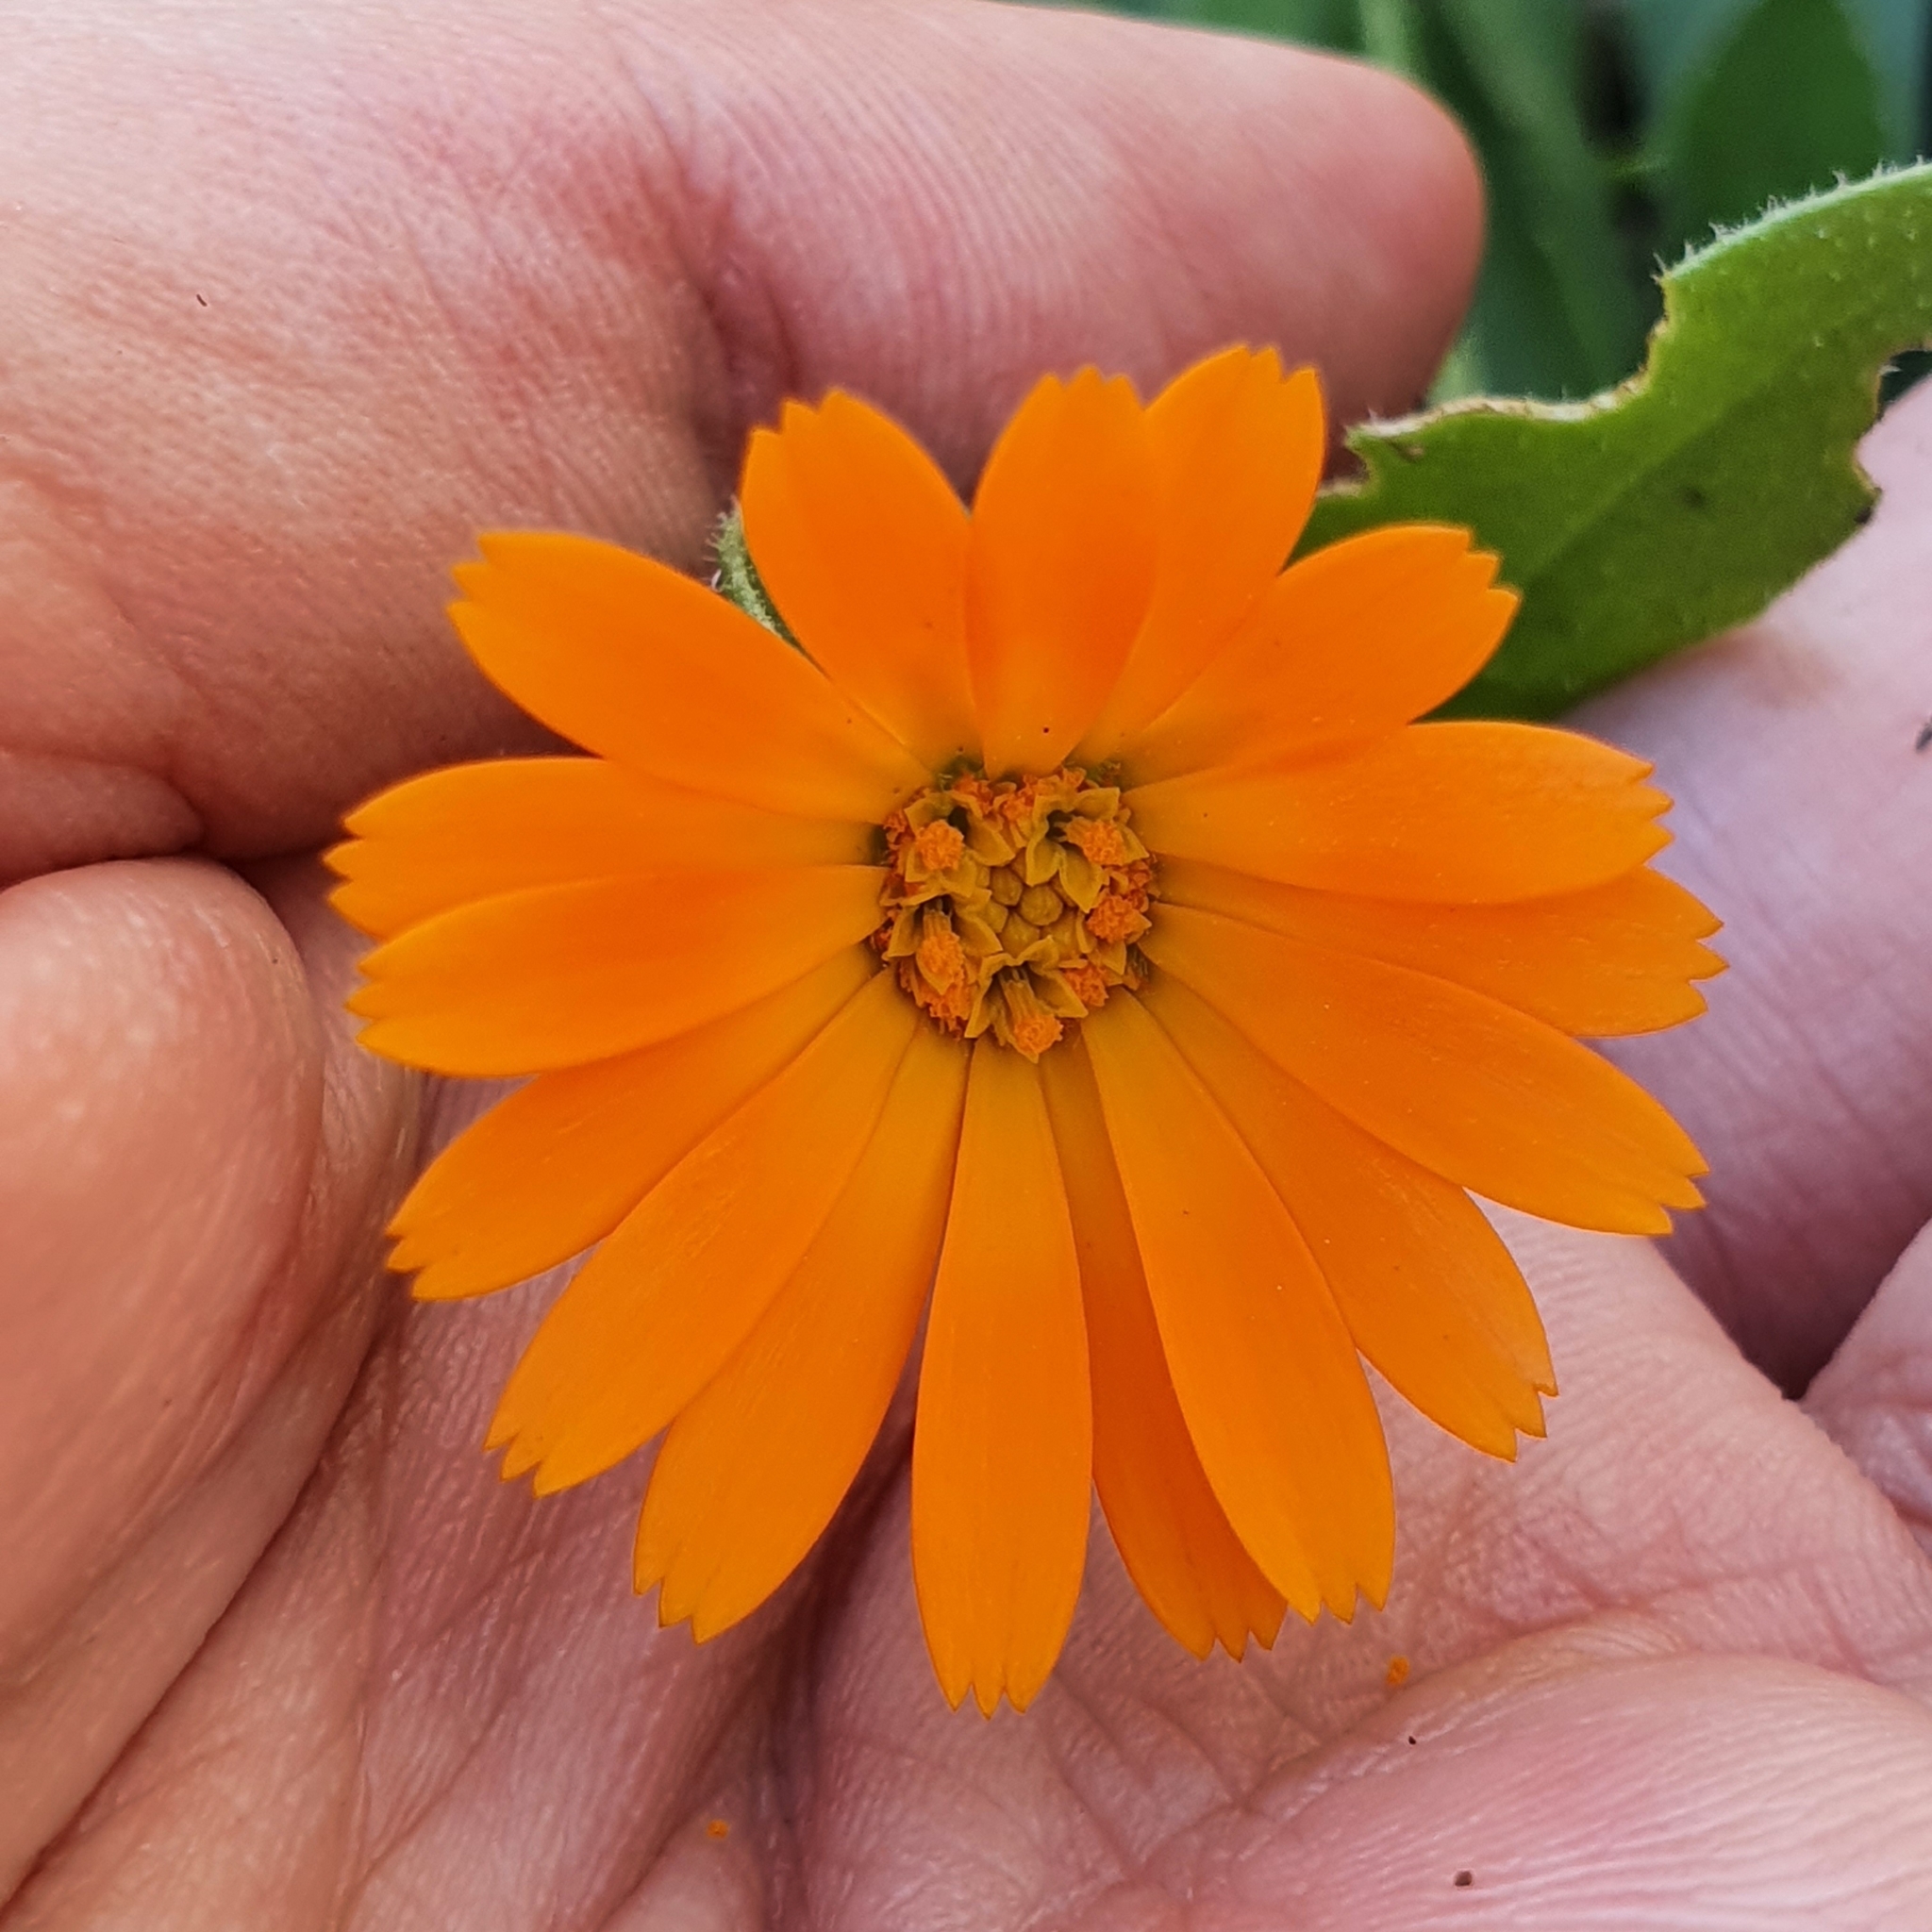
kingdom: Plantae
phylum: Tracheophyta
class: Magnoliopsida
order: Asterales
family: Asteraceae
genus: Calendula
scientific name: Calendula arvensis
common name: Field marigold
